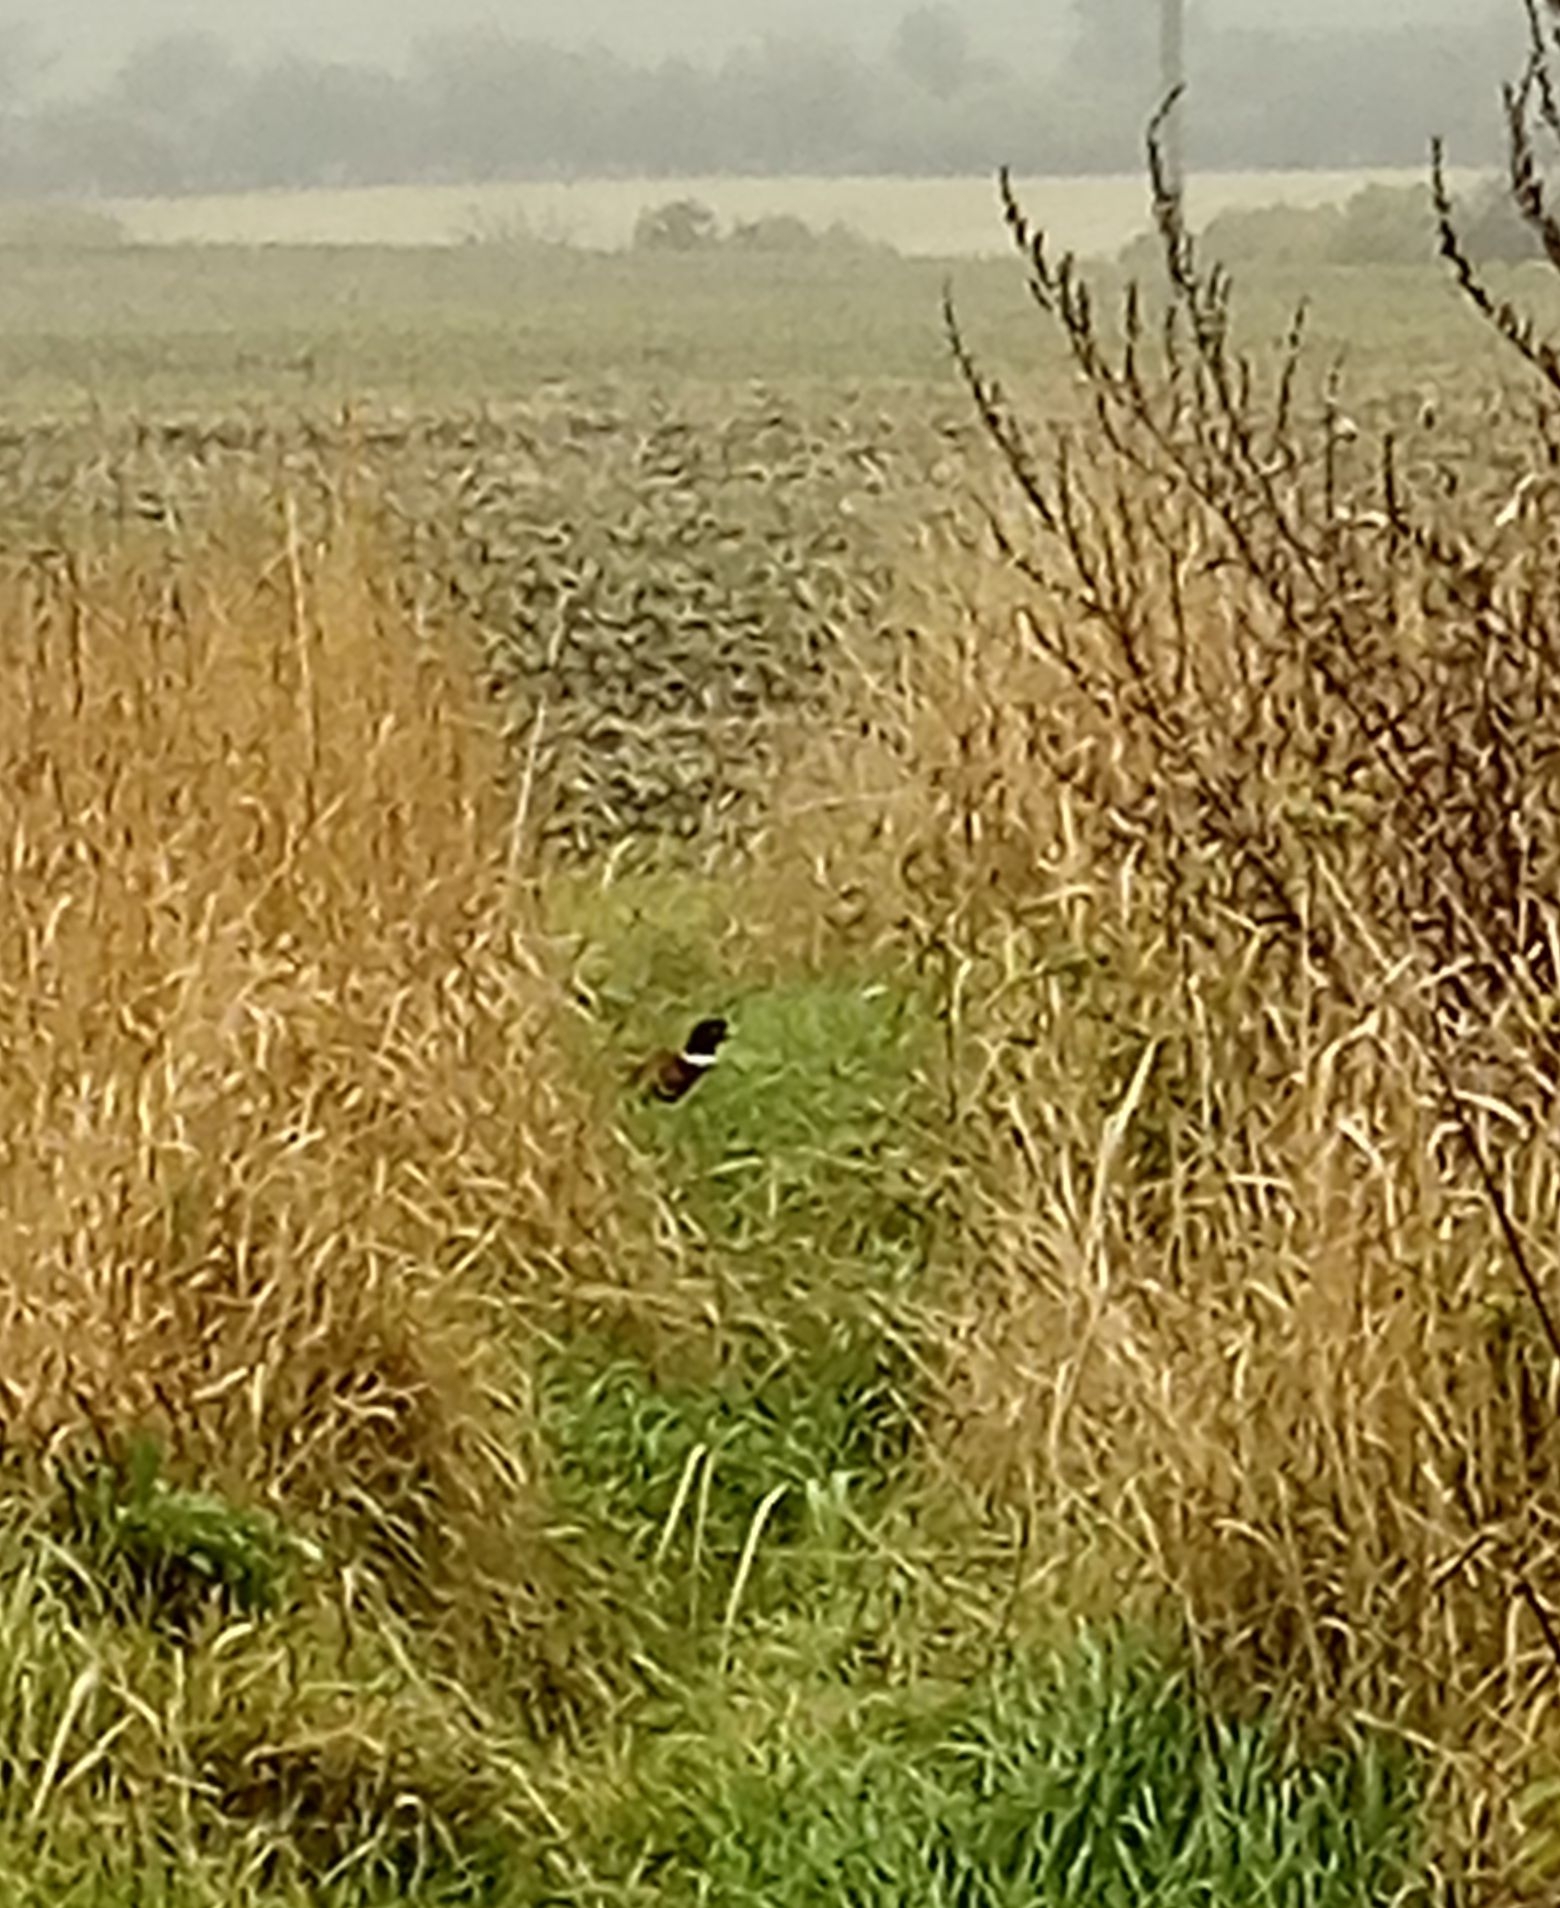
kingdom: Animalia
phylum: Chordata
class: Aves
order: Galliformes
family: Phasianidae
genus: Phasianus
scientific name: Phasianus colchicus
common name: Common pheasant
